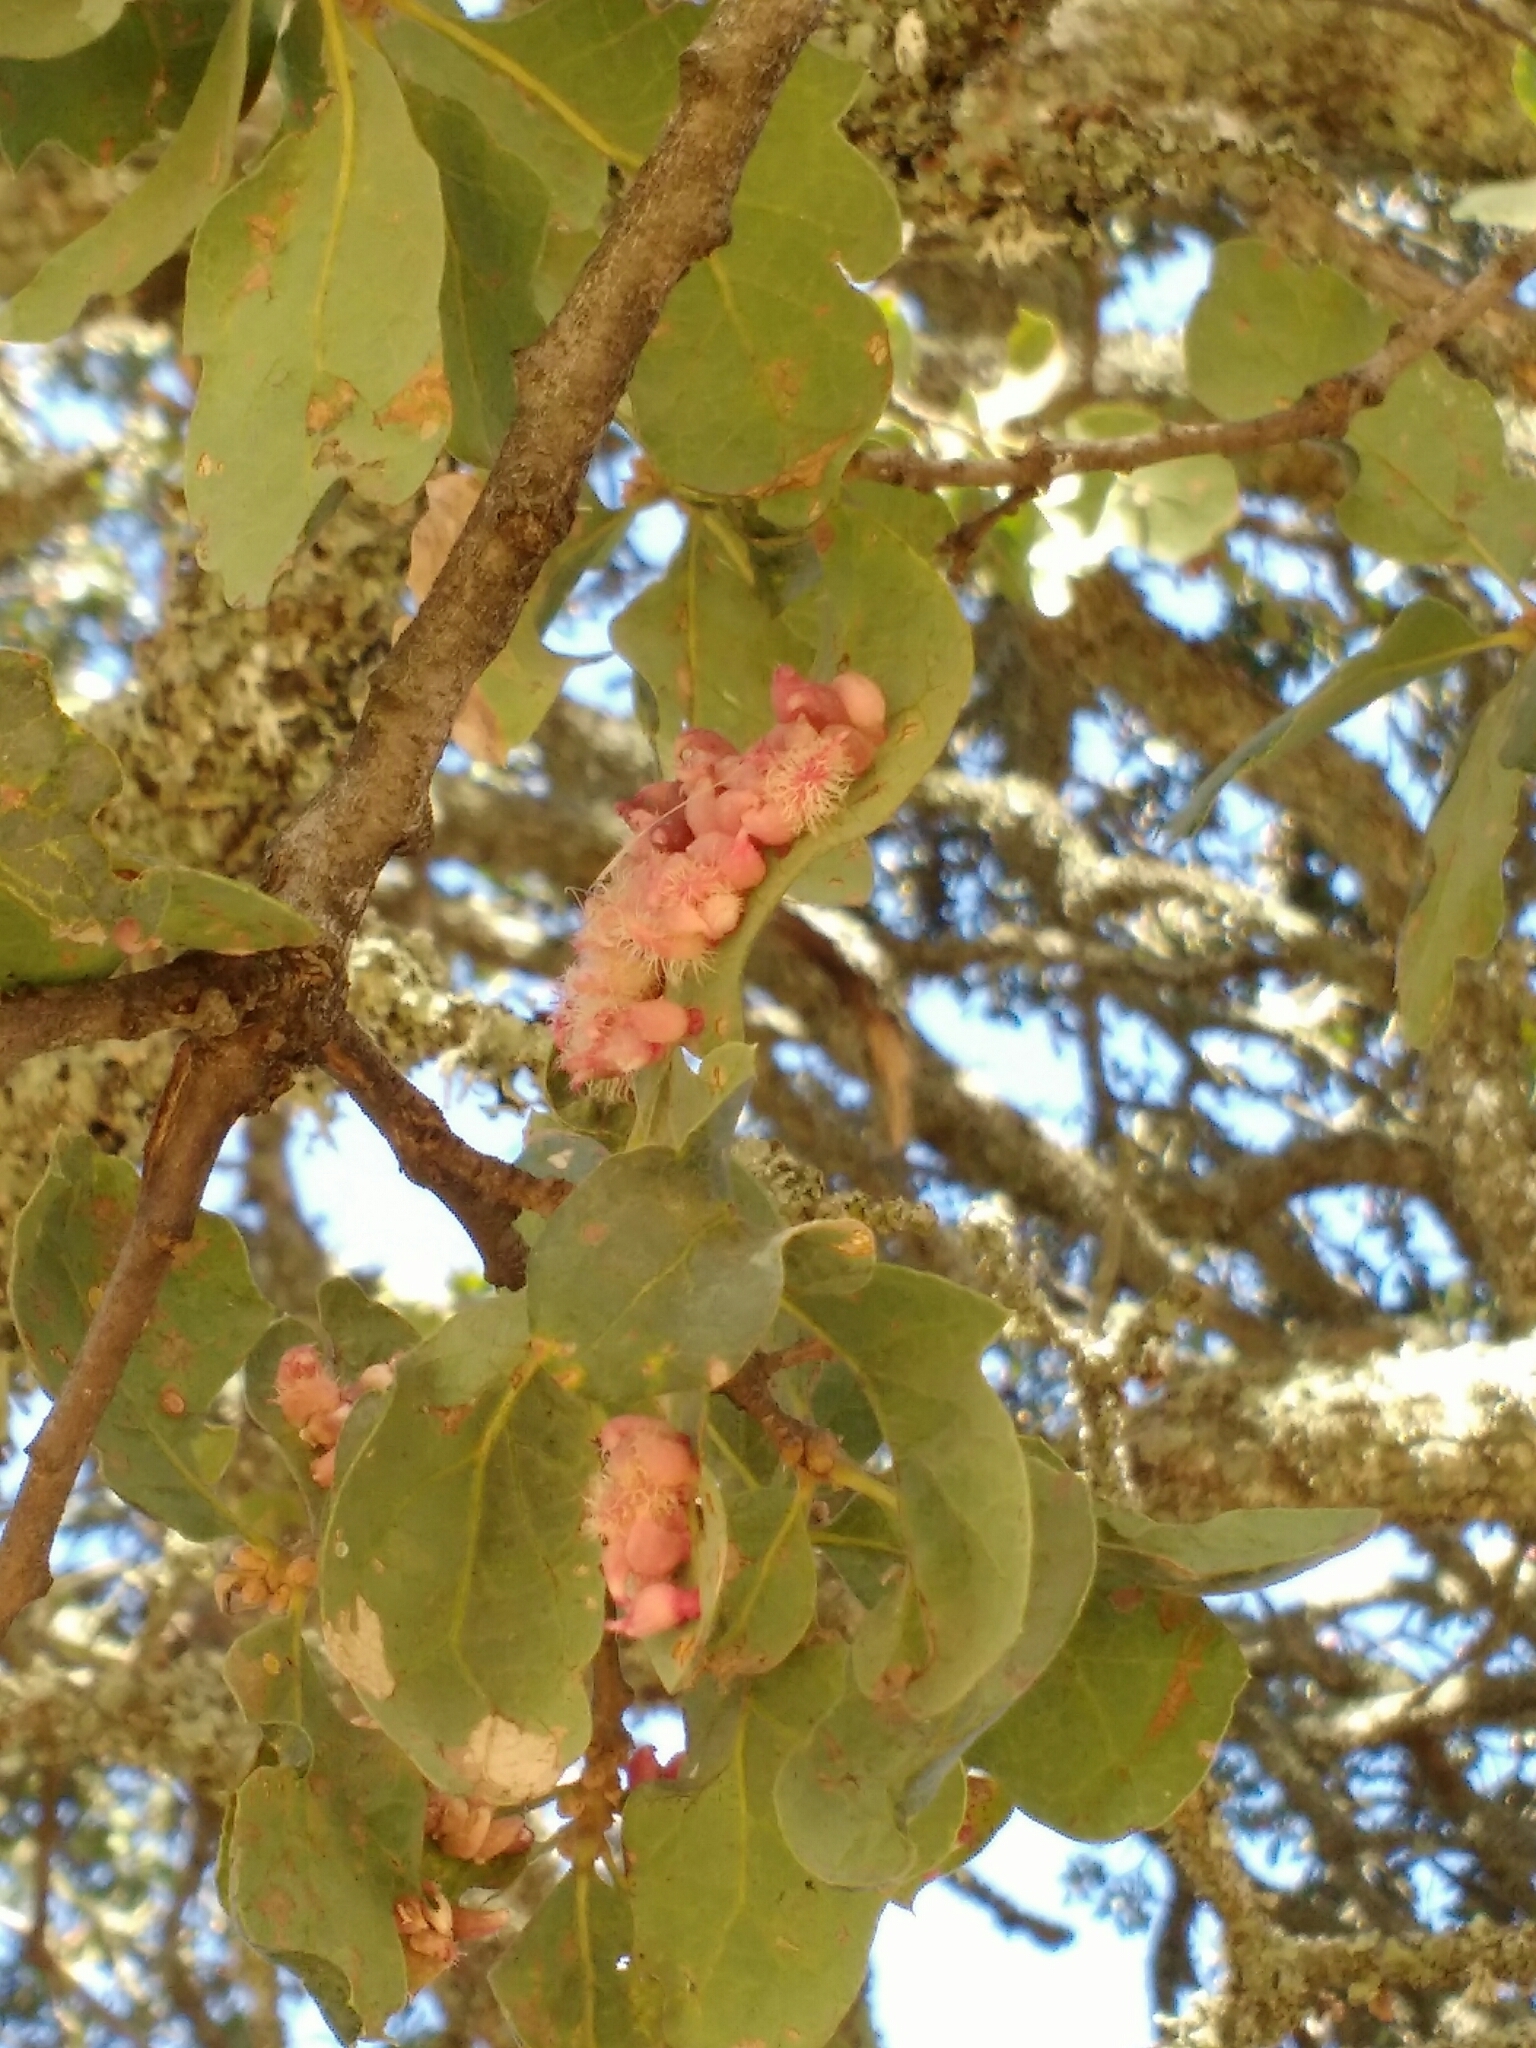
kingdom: Animalia
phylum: Arthropoda
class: Insecta
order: Hymenoptera
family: Cynipidae
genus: Andricus
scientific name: Andricus
